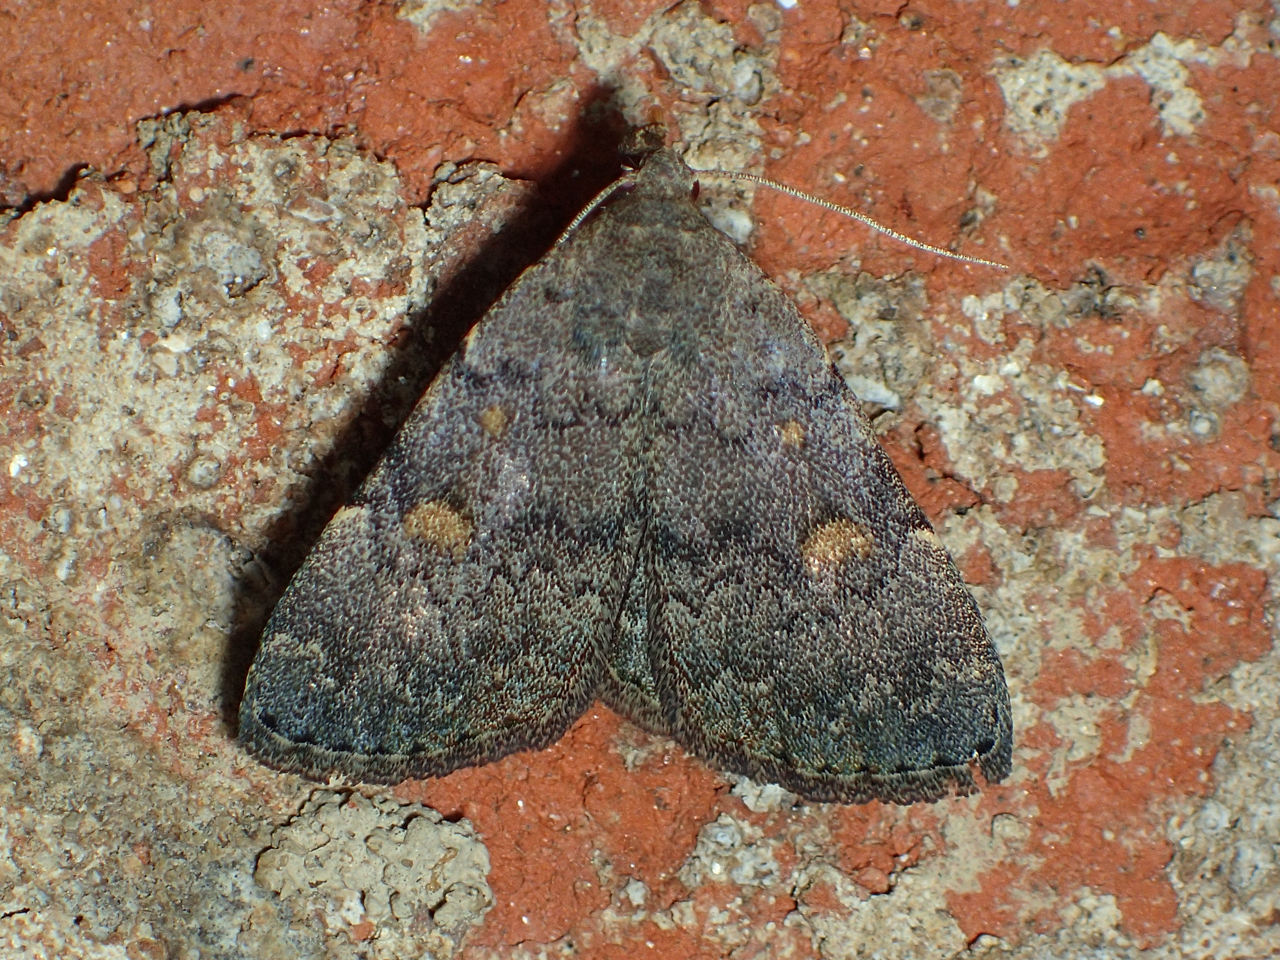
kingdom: Animalia
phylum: Arthropoda
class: Insecta
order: Lepidoptera
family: Erebidae
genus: Idia
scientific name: Idia aemula
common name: Common idia moth
